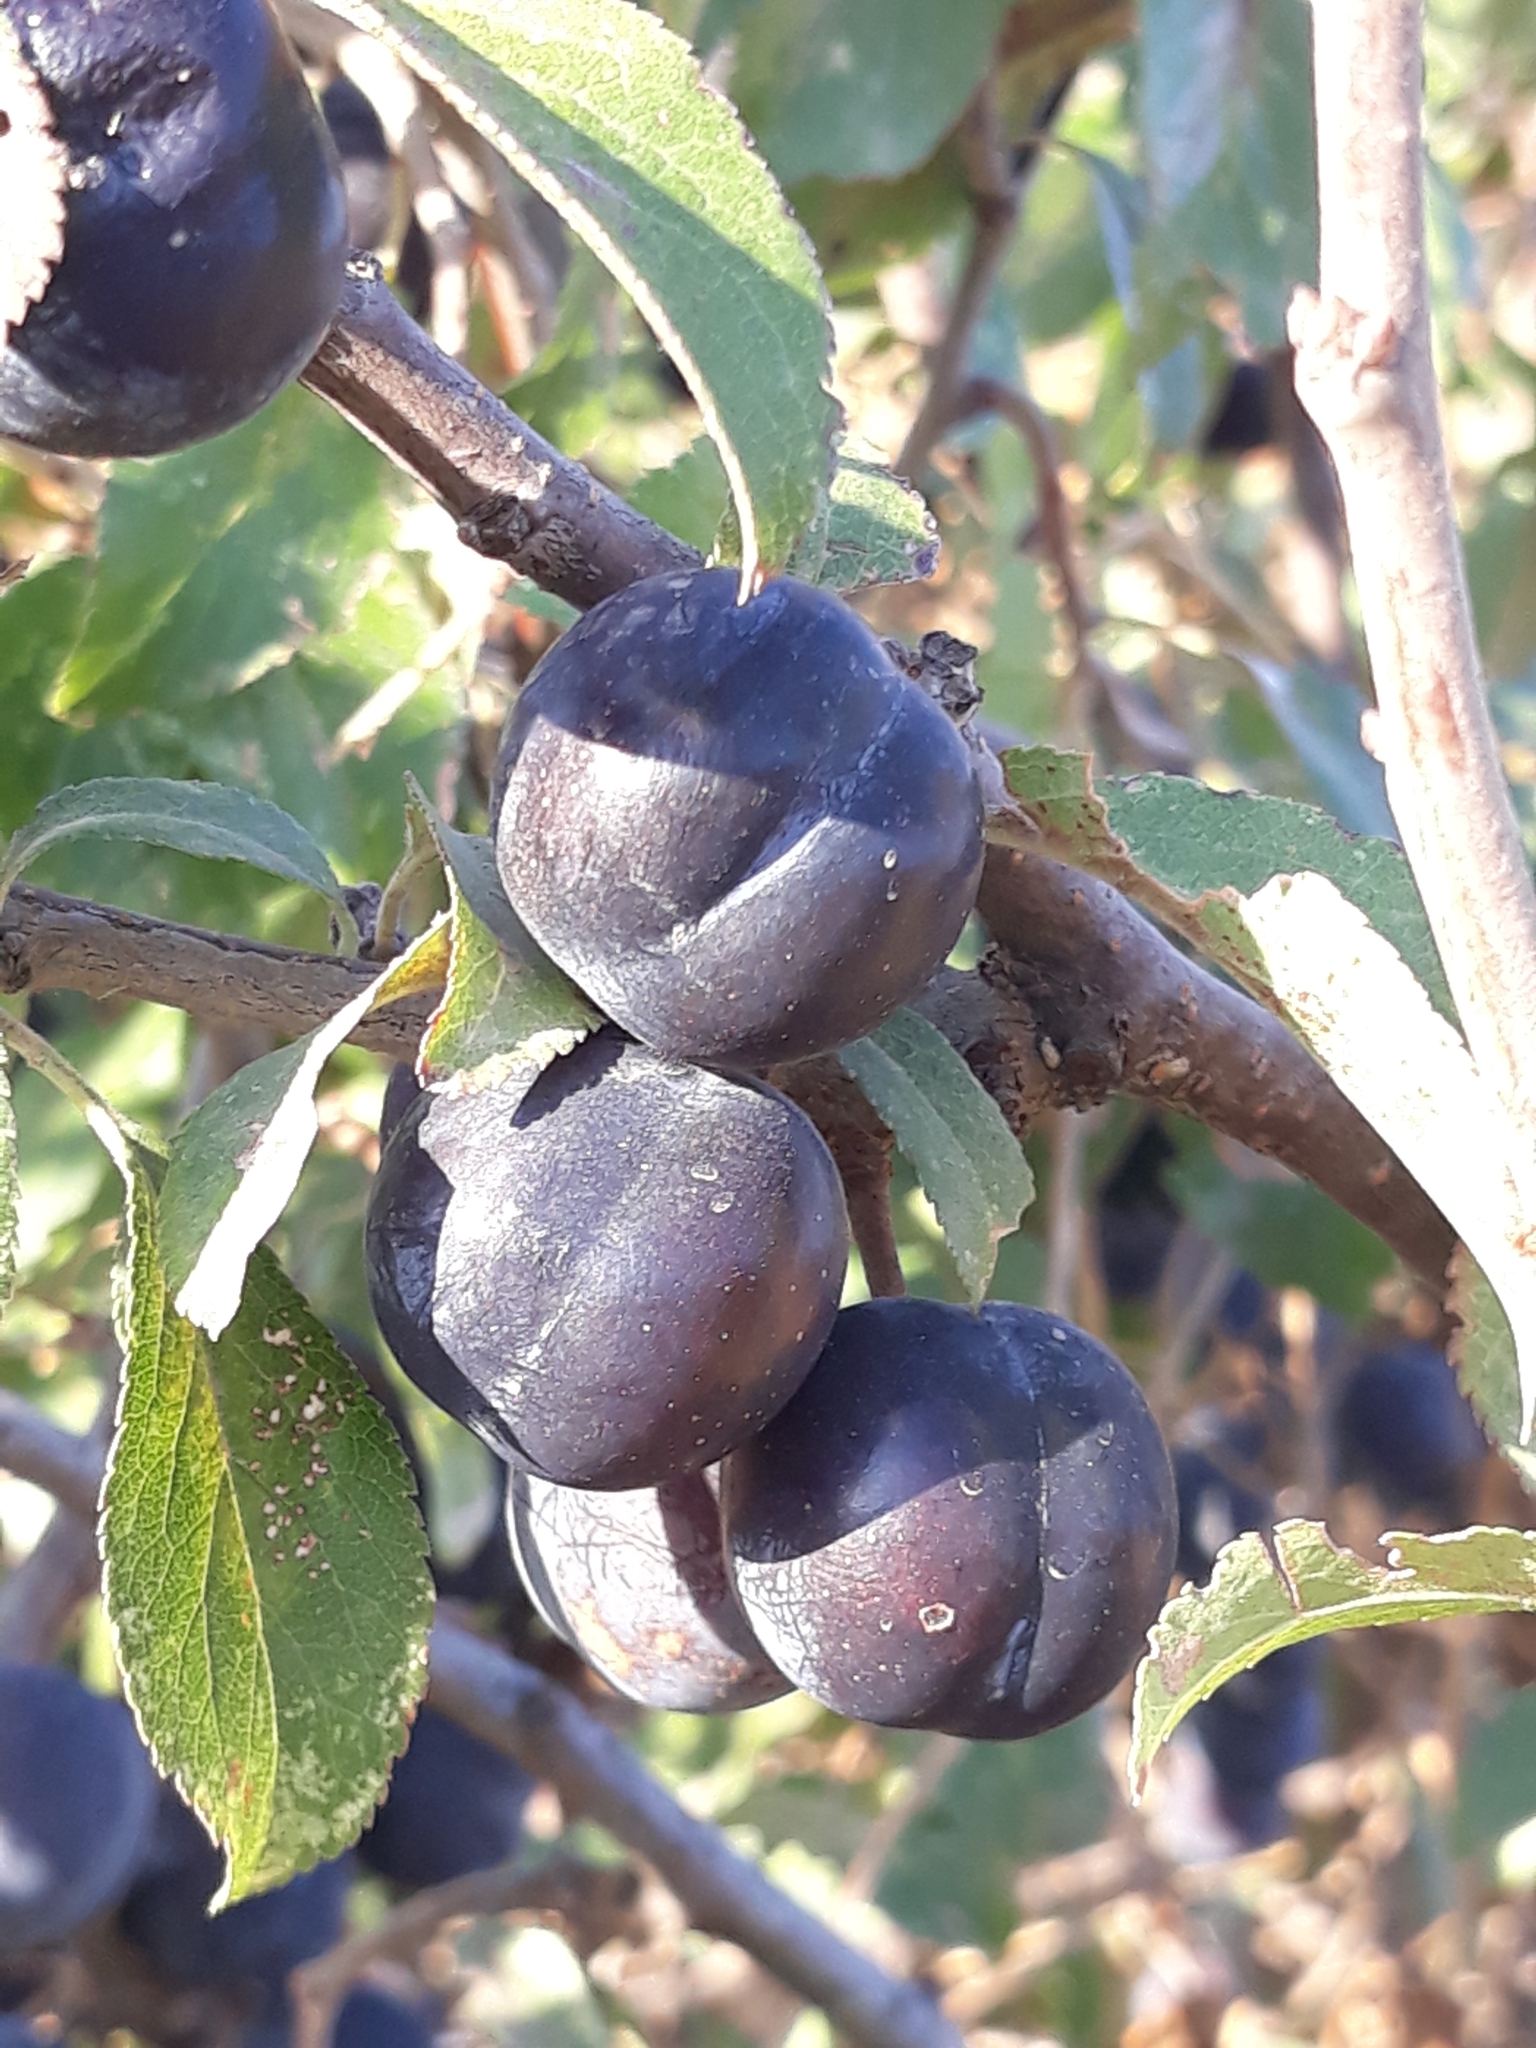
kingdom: Plantae
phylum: Tracheophyta
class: Magnoliopsida
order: Rosales
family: Rosaceae
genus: Prunus
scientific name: Prunus spinosa
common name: Blackthorn
